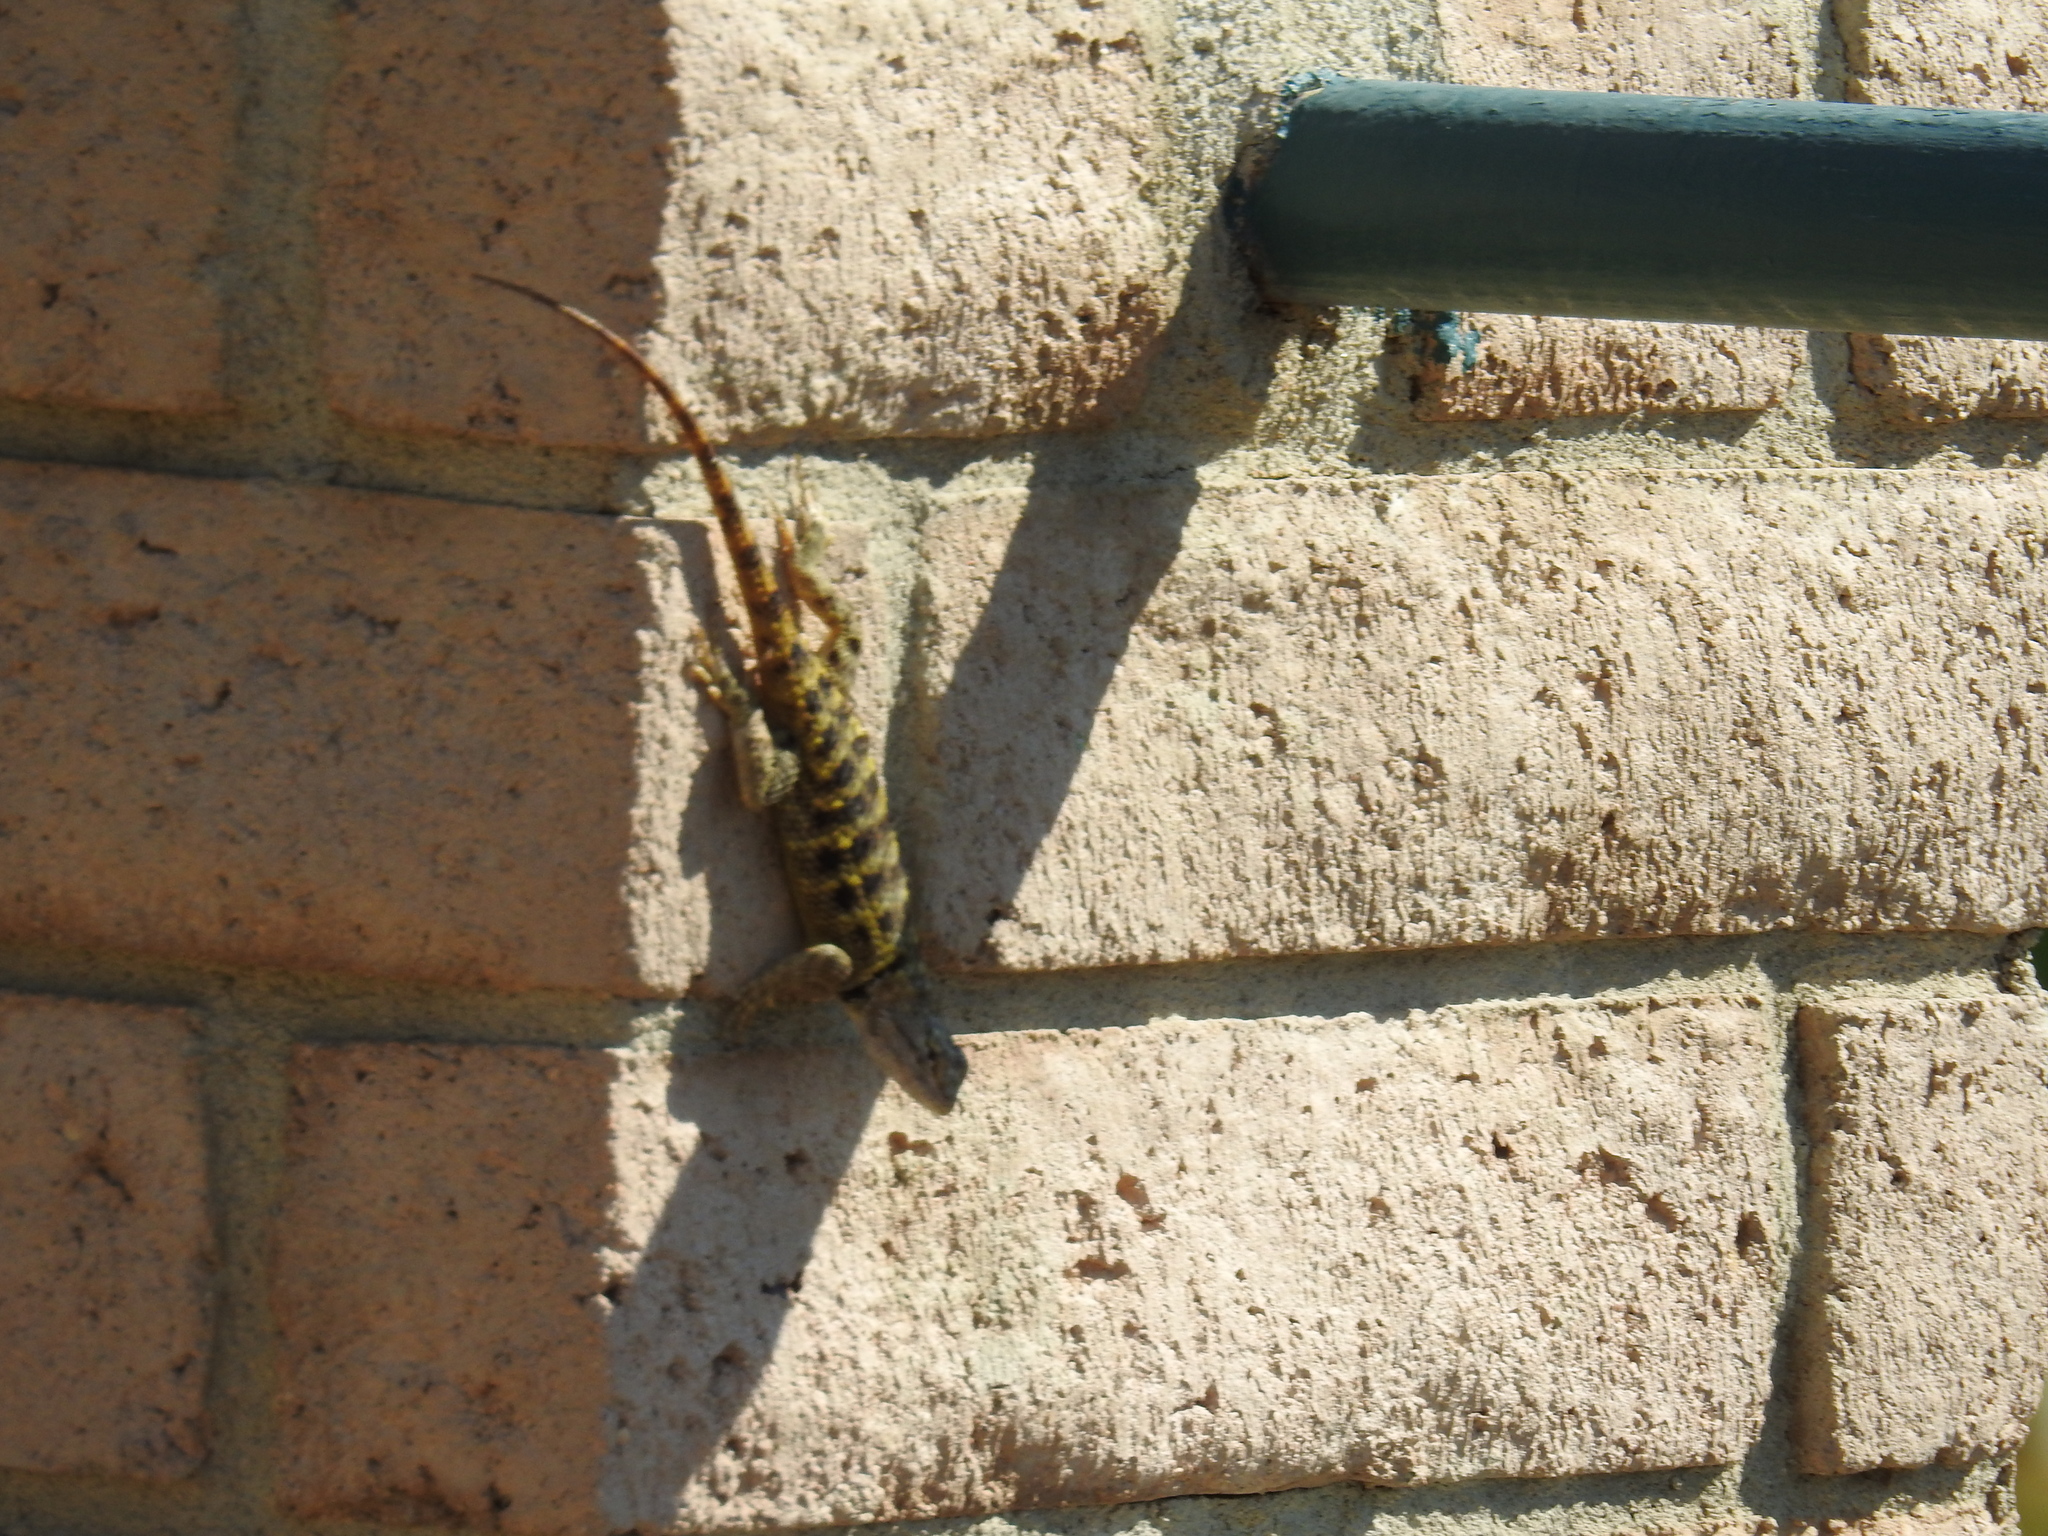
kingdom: Animalia
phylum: Chordata
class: Squamata
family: Phrynosomatidae
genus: Sceloporus
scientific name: Sceloporus uniformis
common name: Yellow-backed spiny lizard
